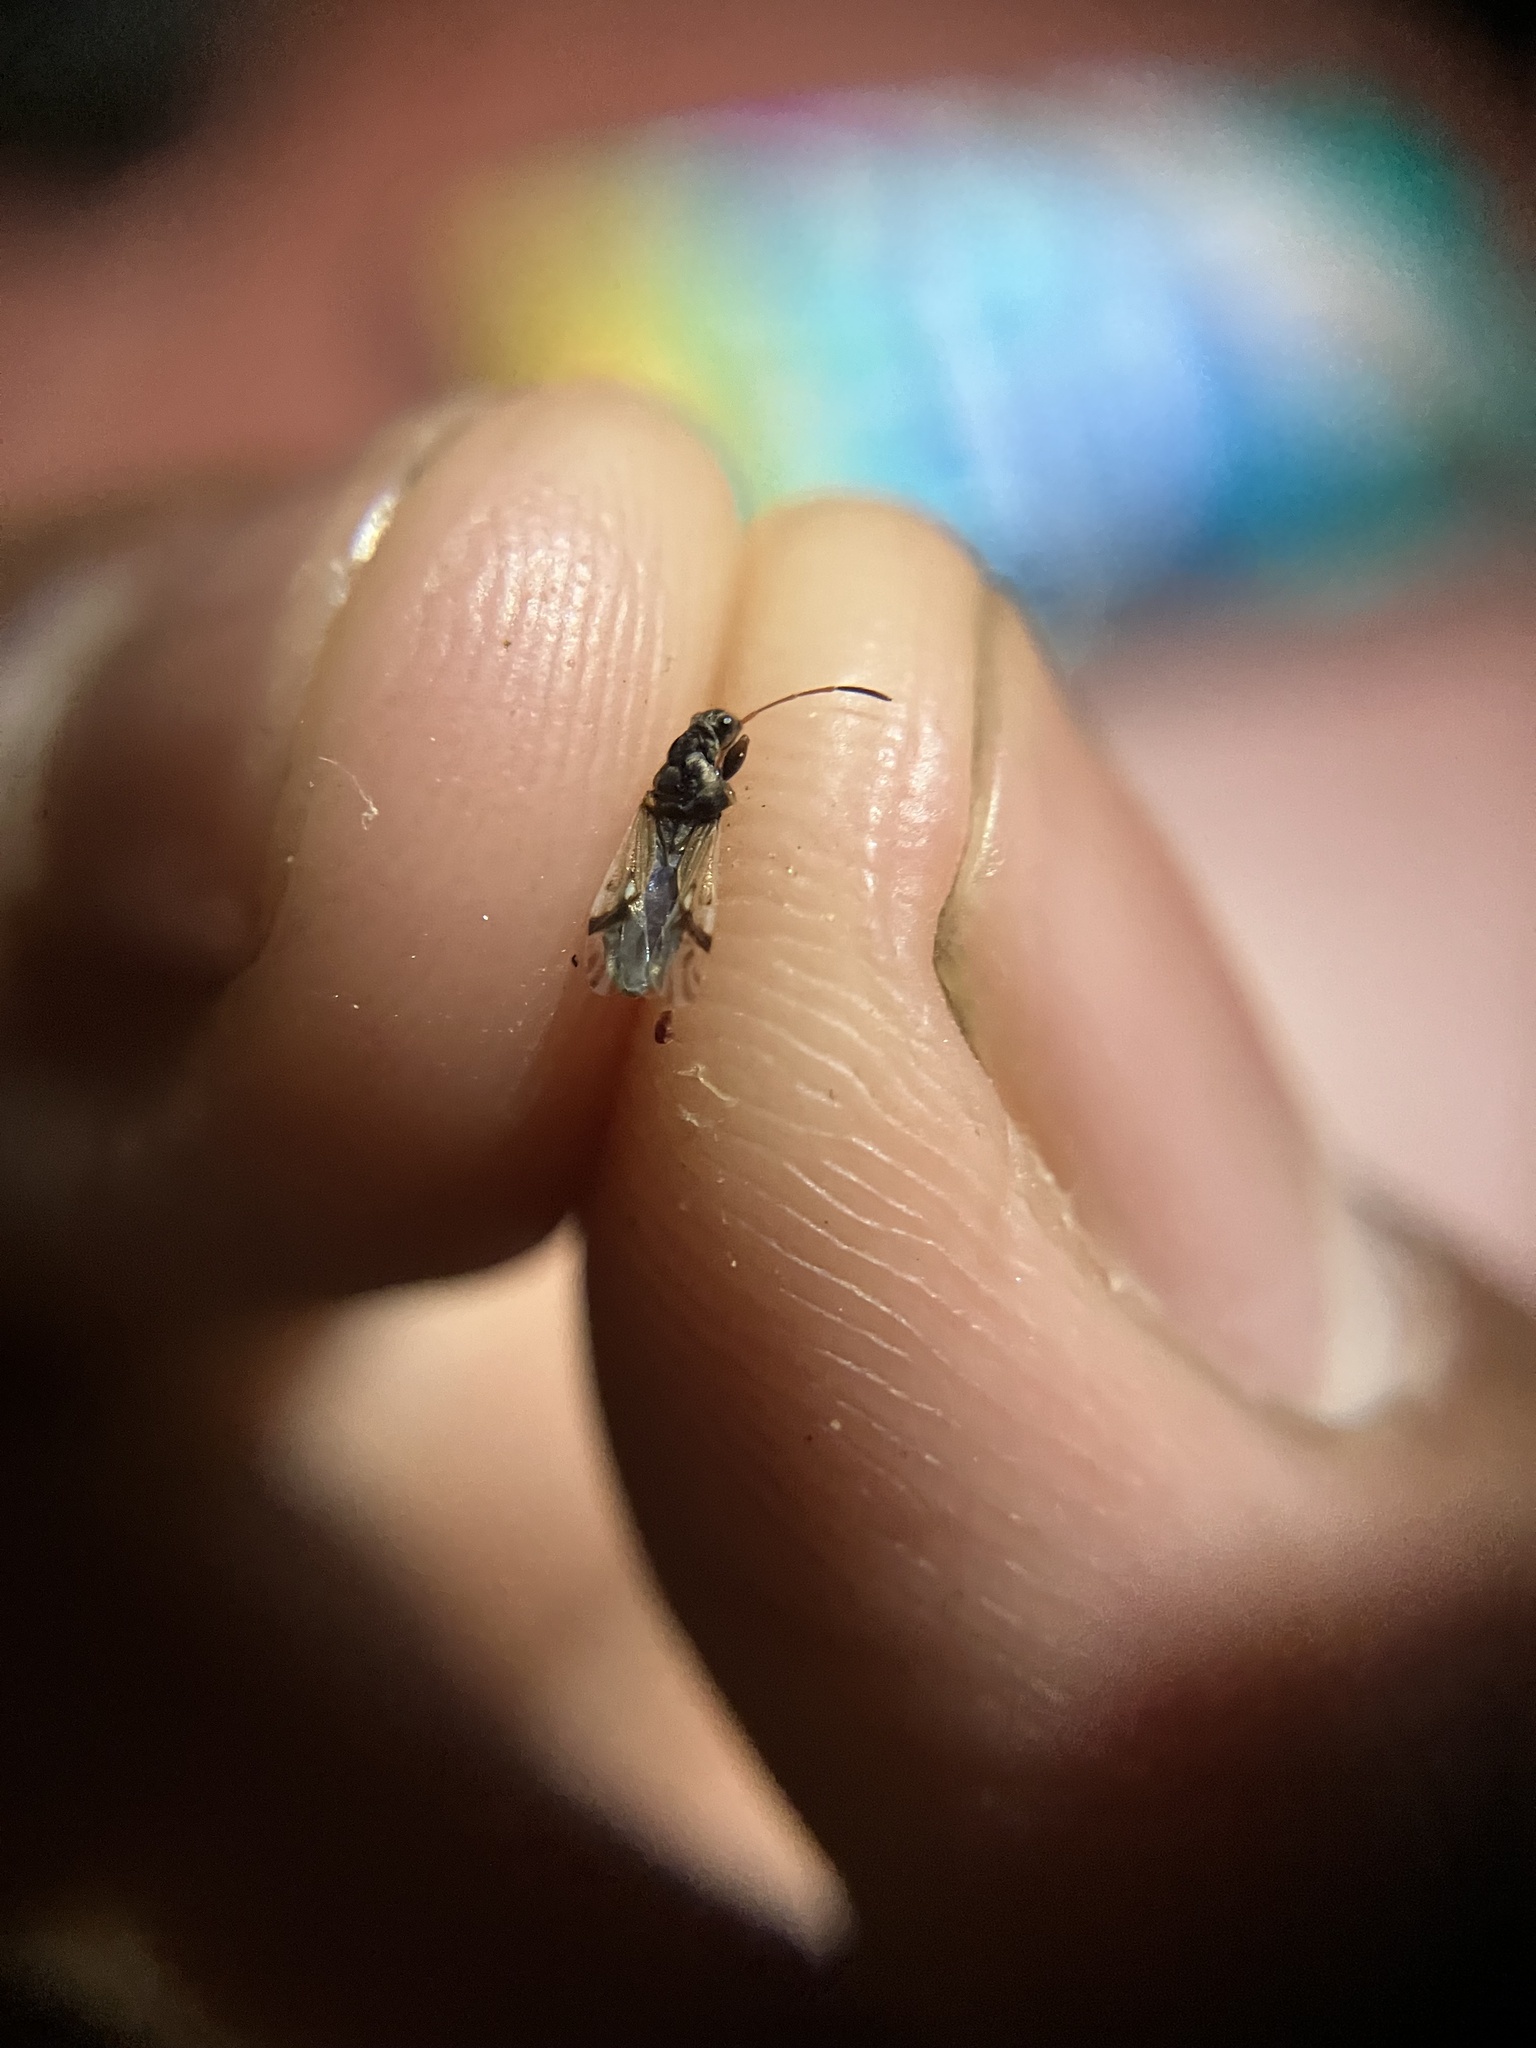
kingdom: Animalia
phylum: Arthropoda
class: Insecta
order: Hemiptera
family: Rhyparochromidae
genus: Pseudopachybrachius
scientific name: Pseudopachybrachius guttus
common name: Seed bug
